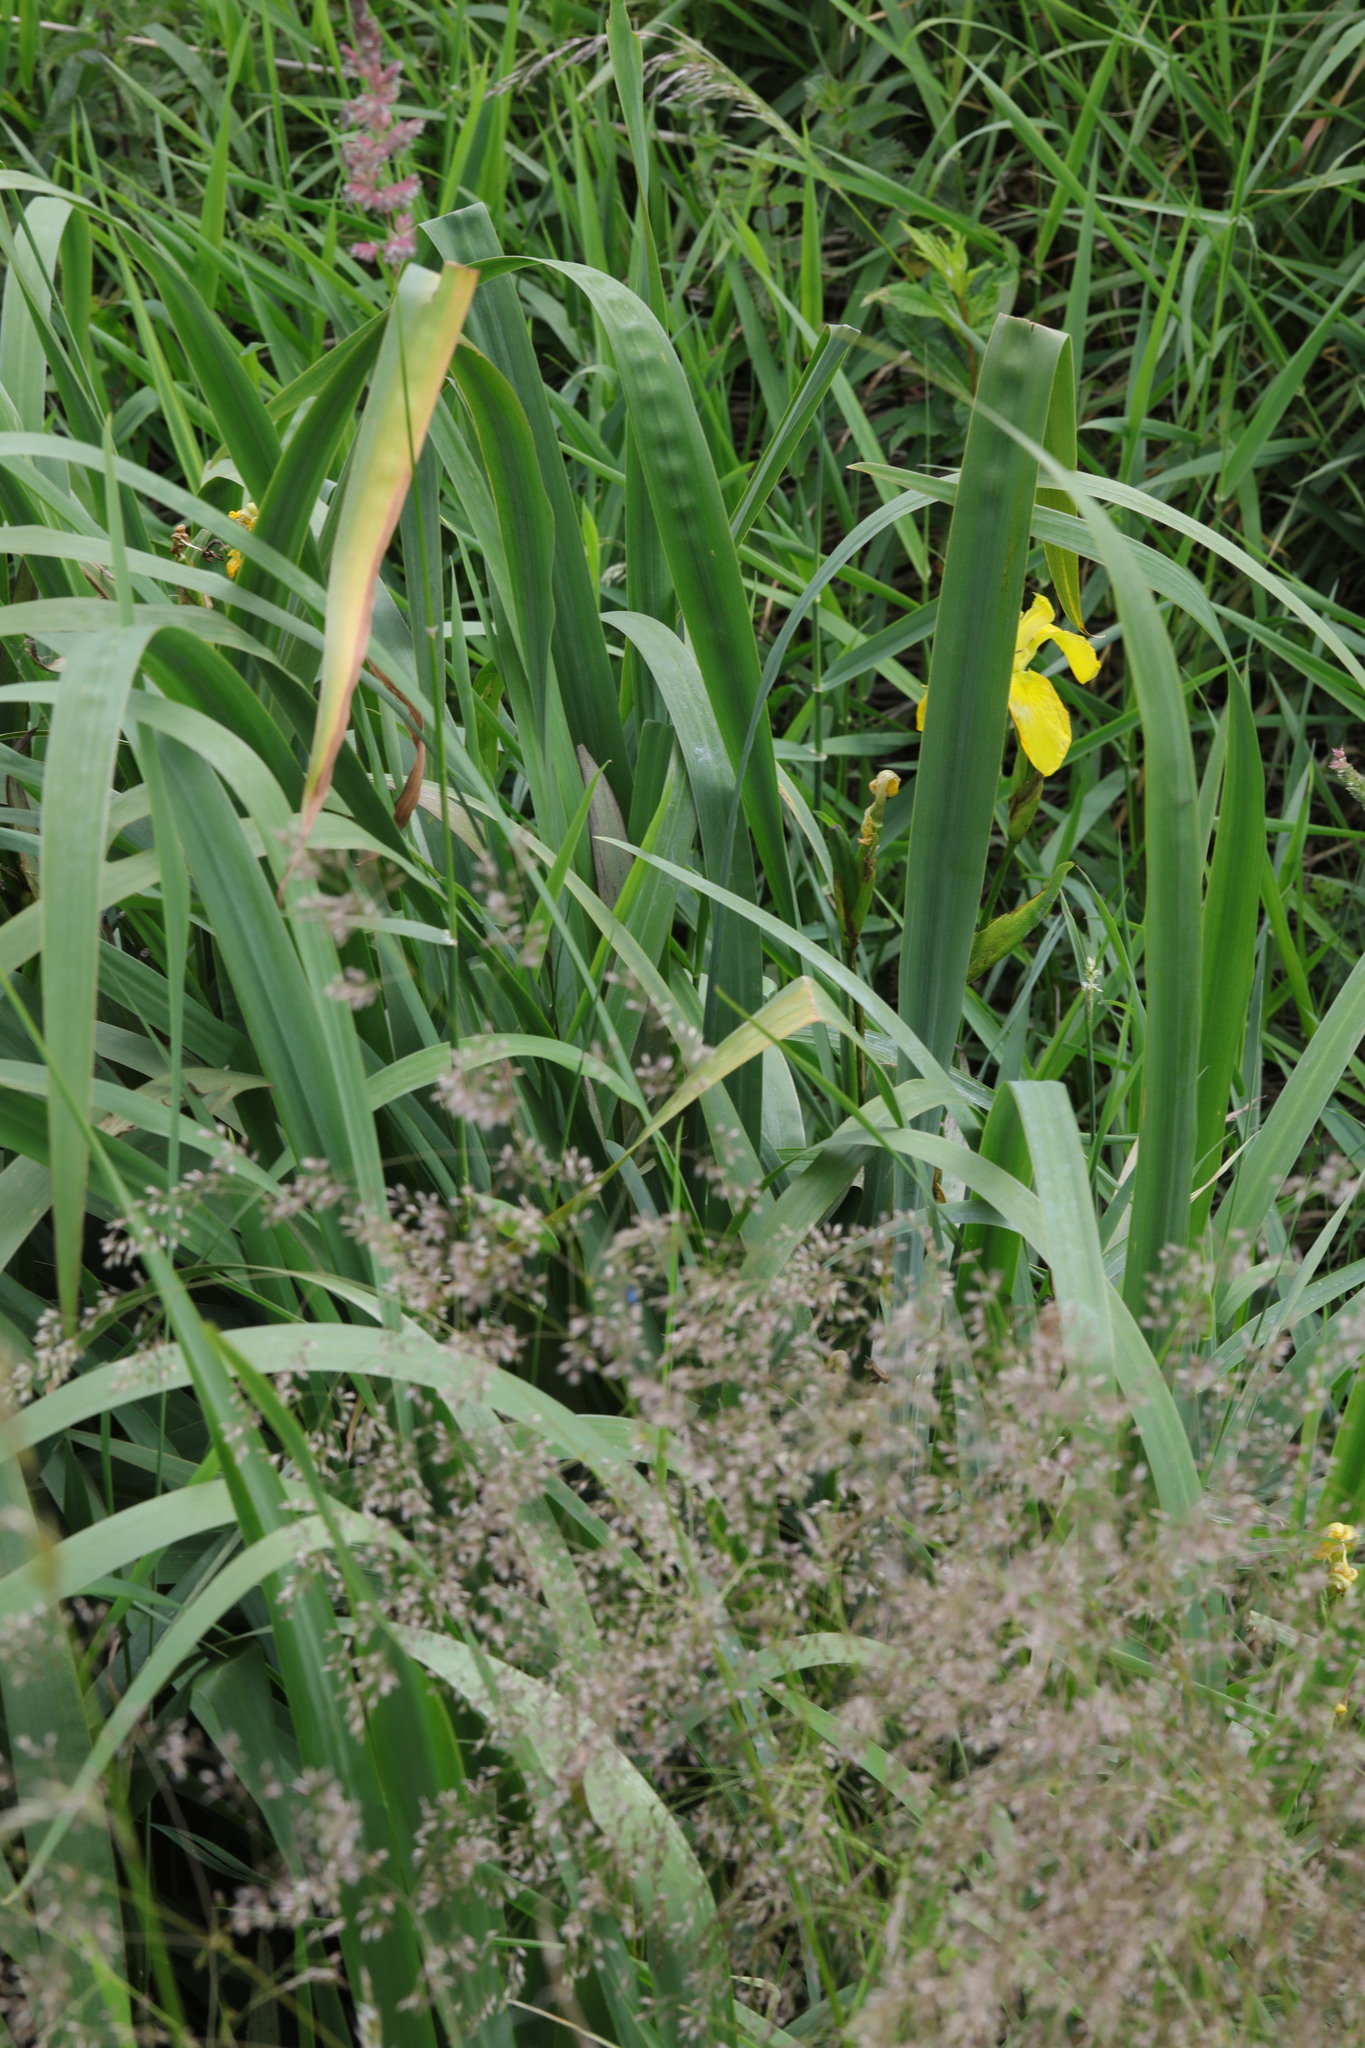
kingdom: Plantae
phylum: Tracheophyta
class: Liliopsida
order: Asparagales
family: Iridaceae
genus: Iris
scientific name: Iris pseudacorus
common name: Yellow flag
